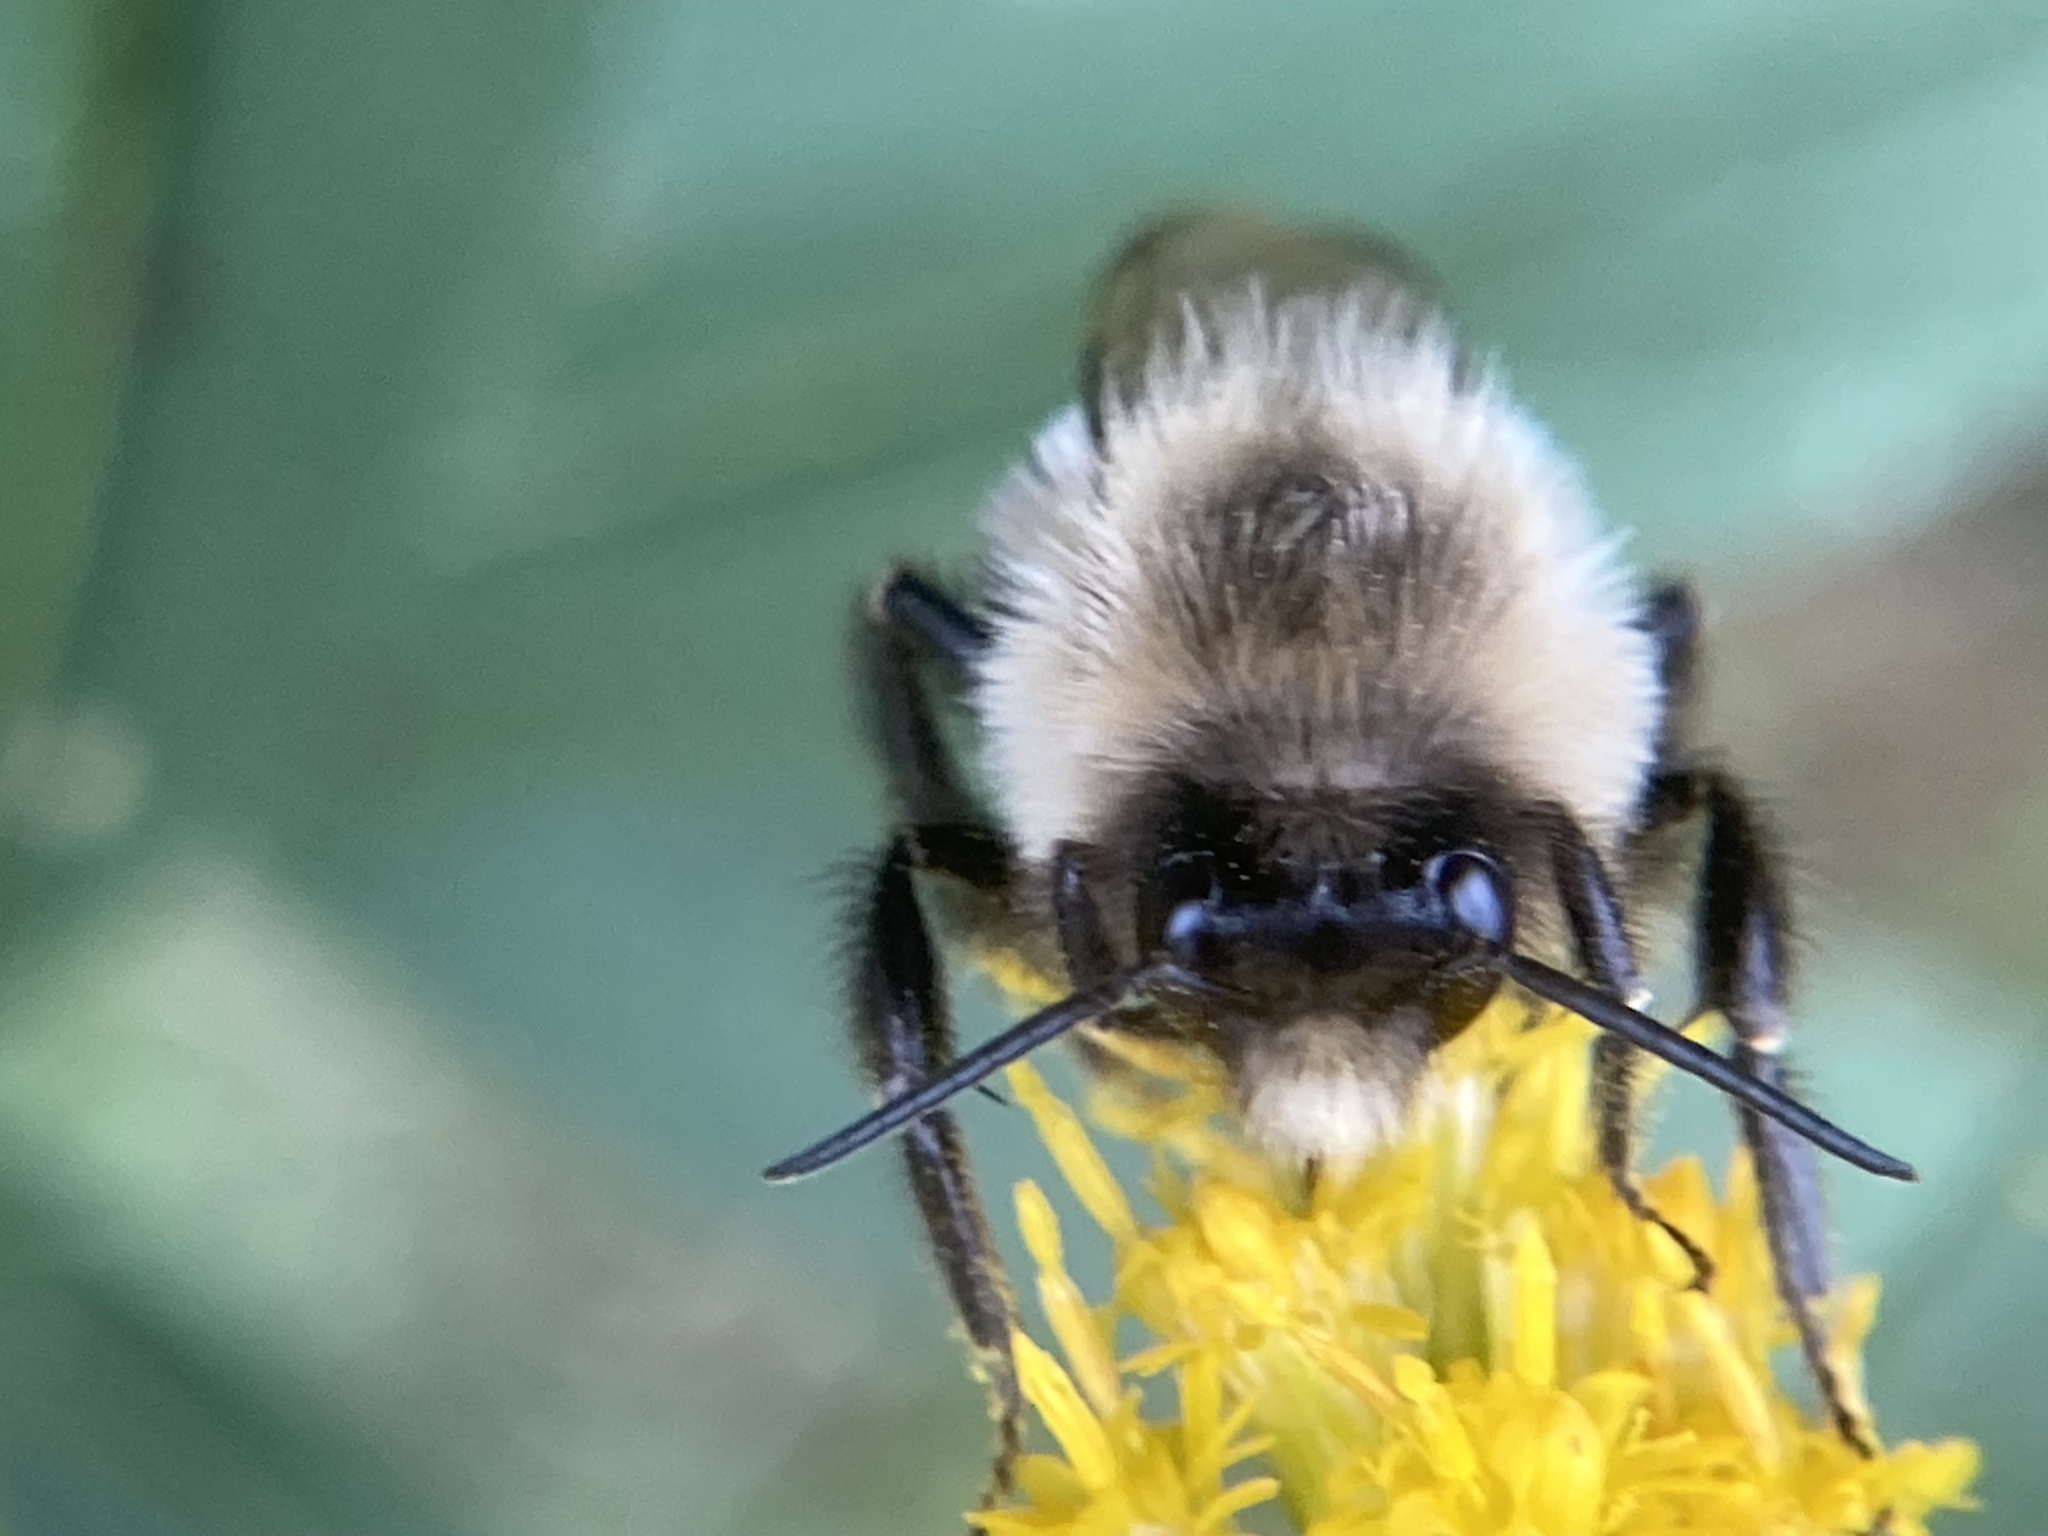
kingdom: Animalia
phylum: Arthropoda
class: Insecta
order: Hymenoptera
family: Apidae
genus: Bombus
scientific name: Bombus impatiens
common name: Common eastern bumble bee
